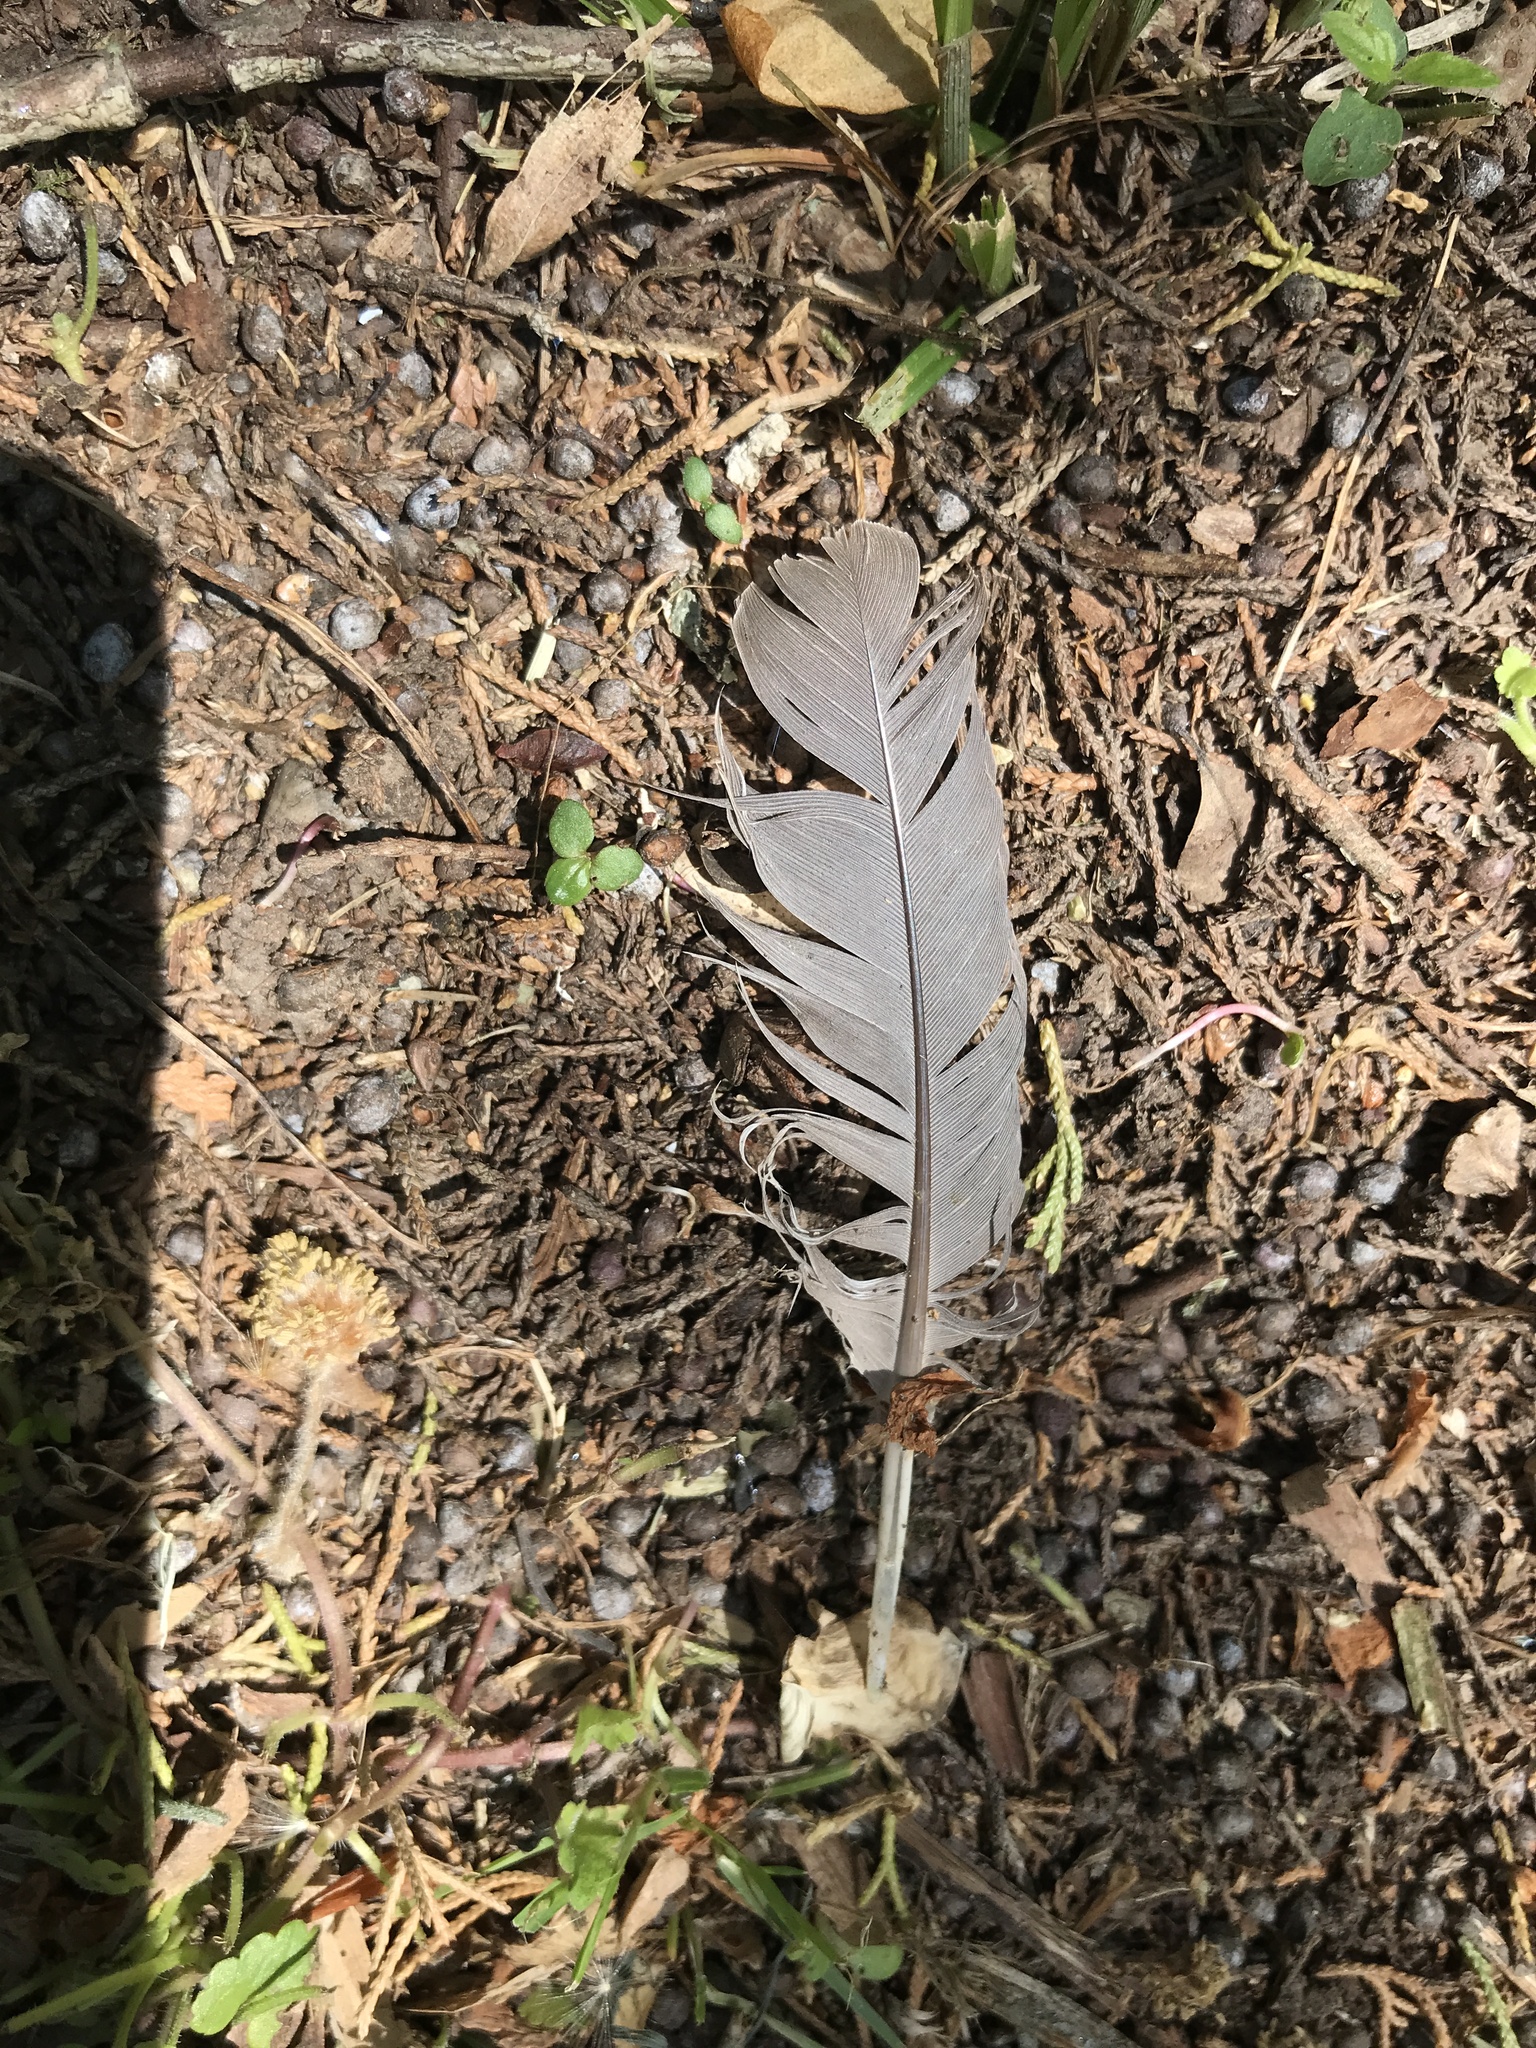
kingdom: Animalia
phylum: Chordata
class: Aves
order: Columbiformes
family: Columbidae
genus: Zenaida
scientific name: Zenaida macroura
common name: Mourning dove
